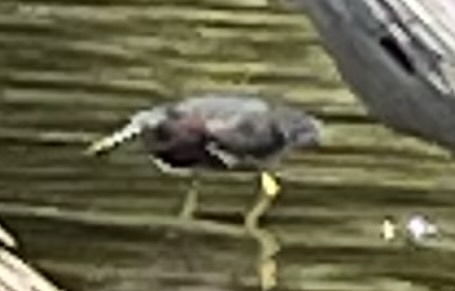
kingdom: Animalia
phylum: Chordata
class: Aves
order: Pelecaniformes
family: Ardeidae
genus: Butorides
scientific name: Butorides virescens
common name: Green heron
